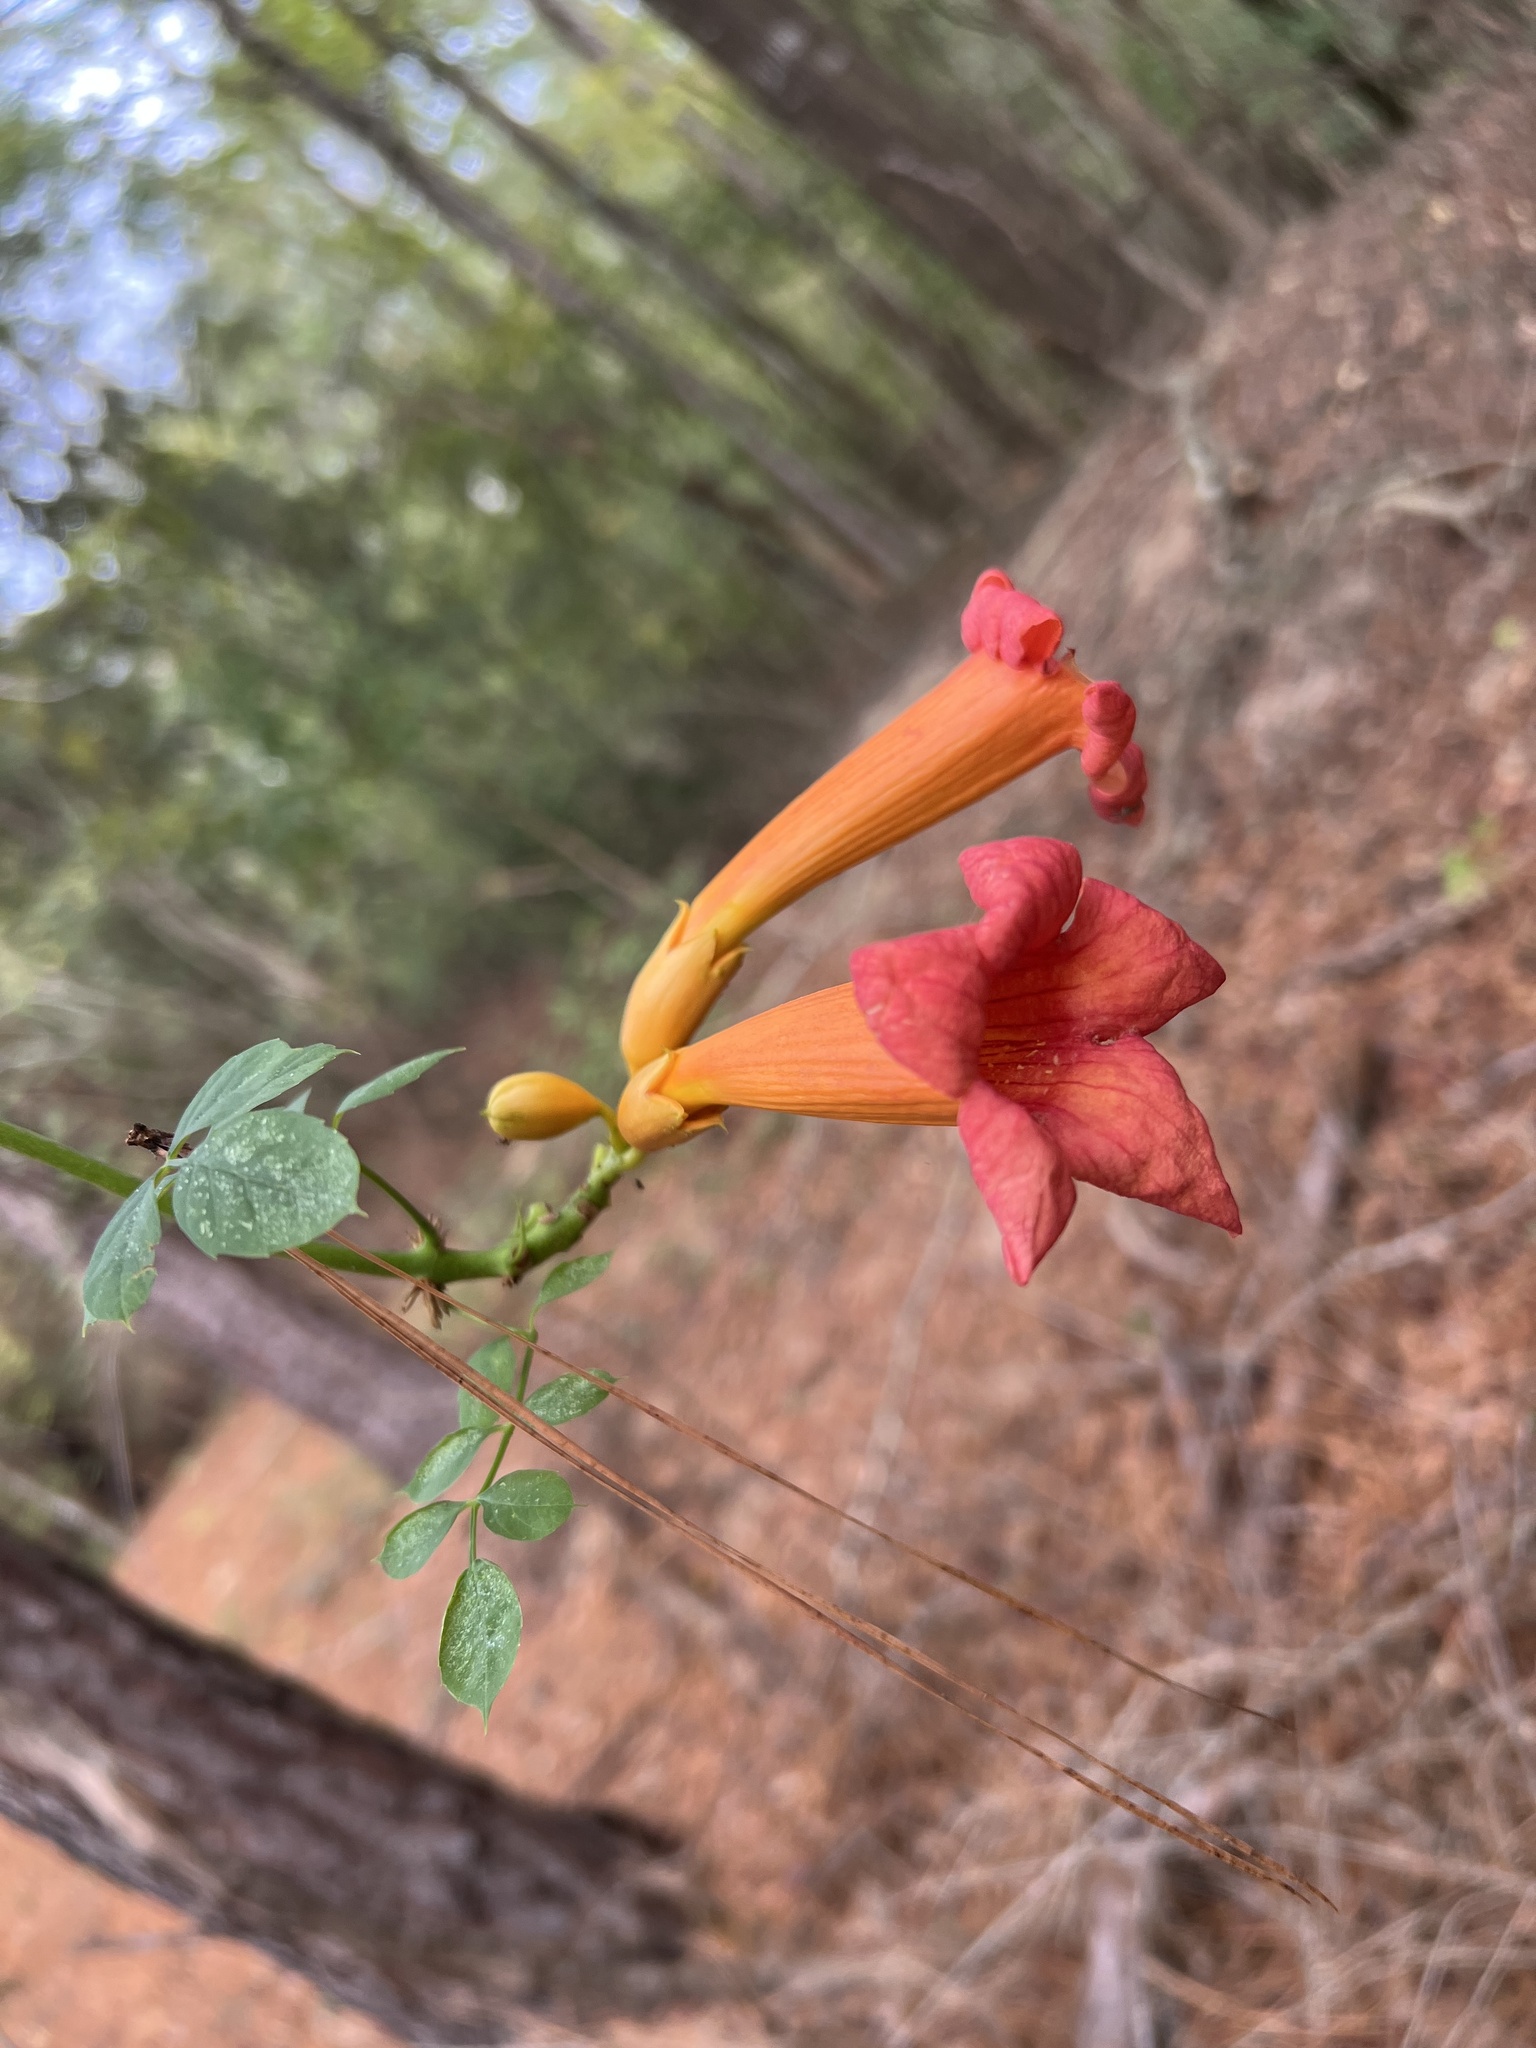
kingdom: Plantae
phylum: Tracheophyta
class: Magnoliopsida
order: Lamiales
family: Bignoniaceae
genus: Campsis
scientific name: Campsis radicans
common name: Trumpet-creeper
